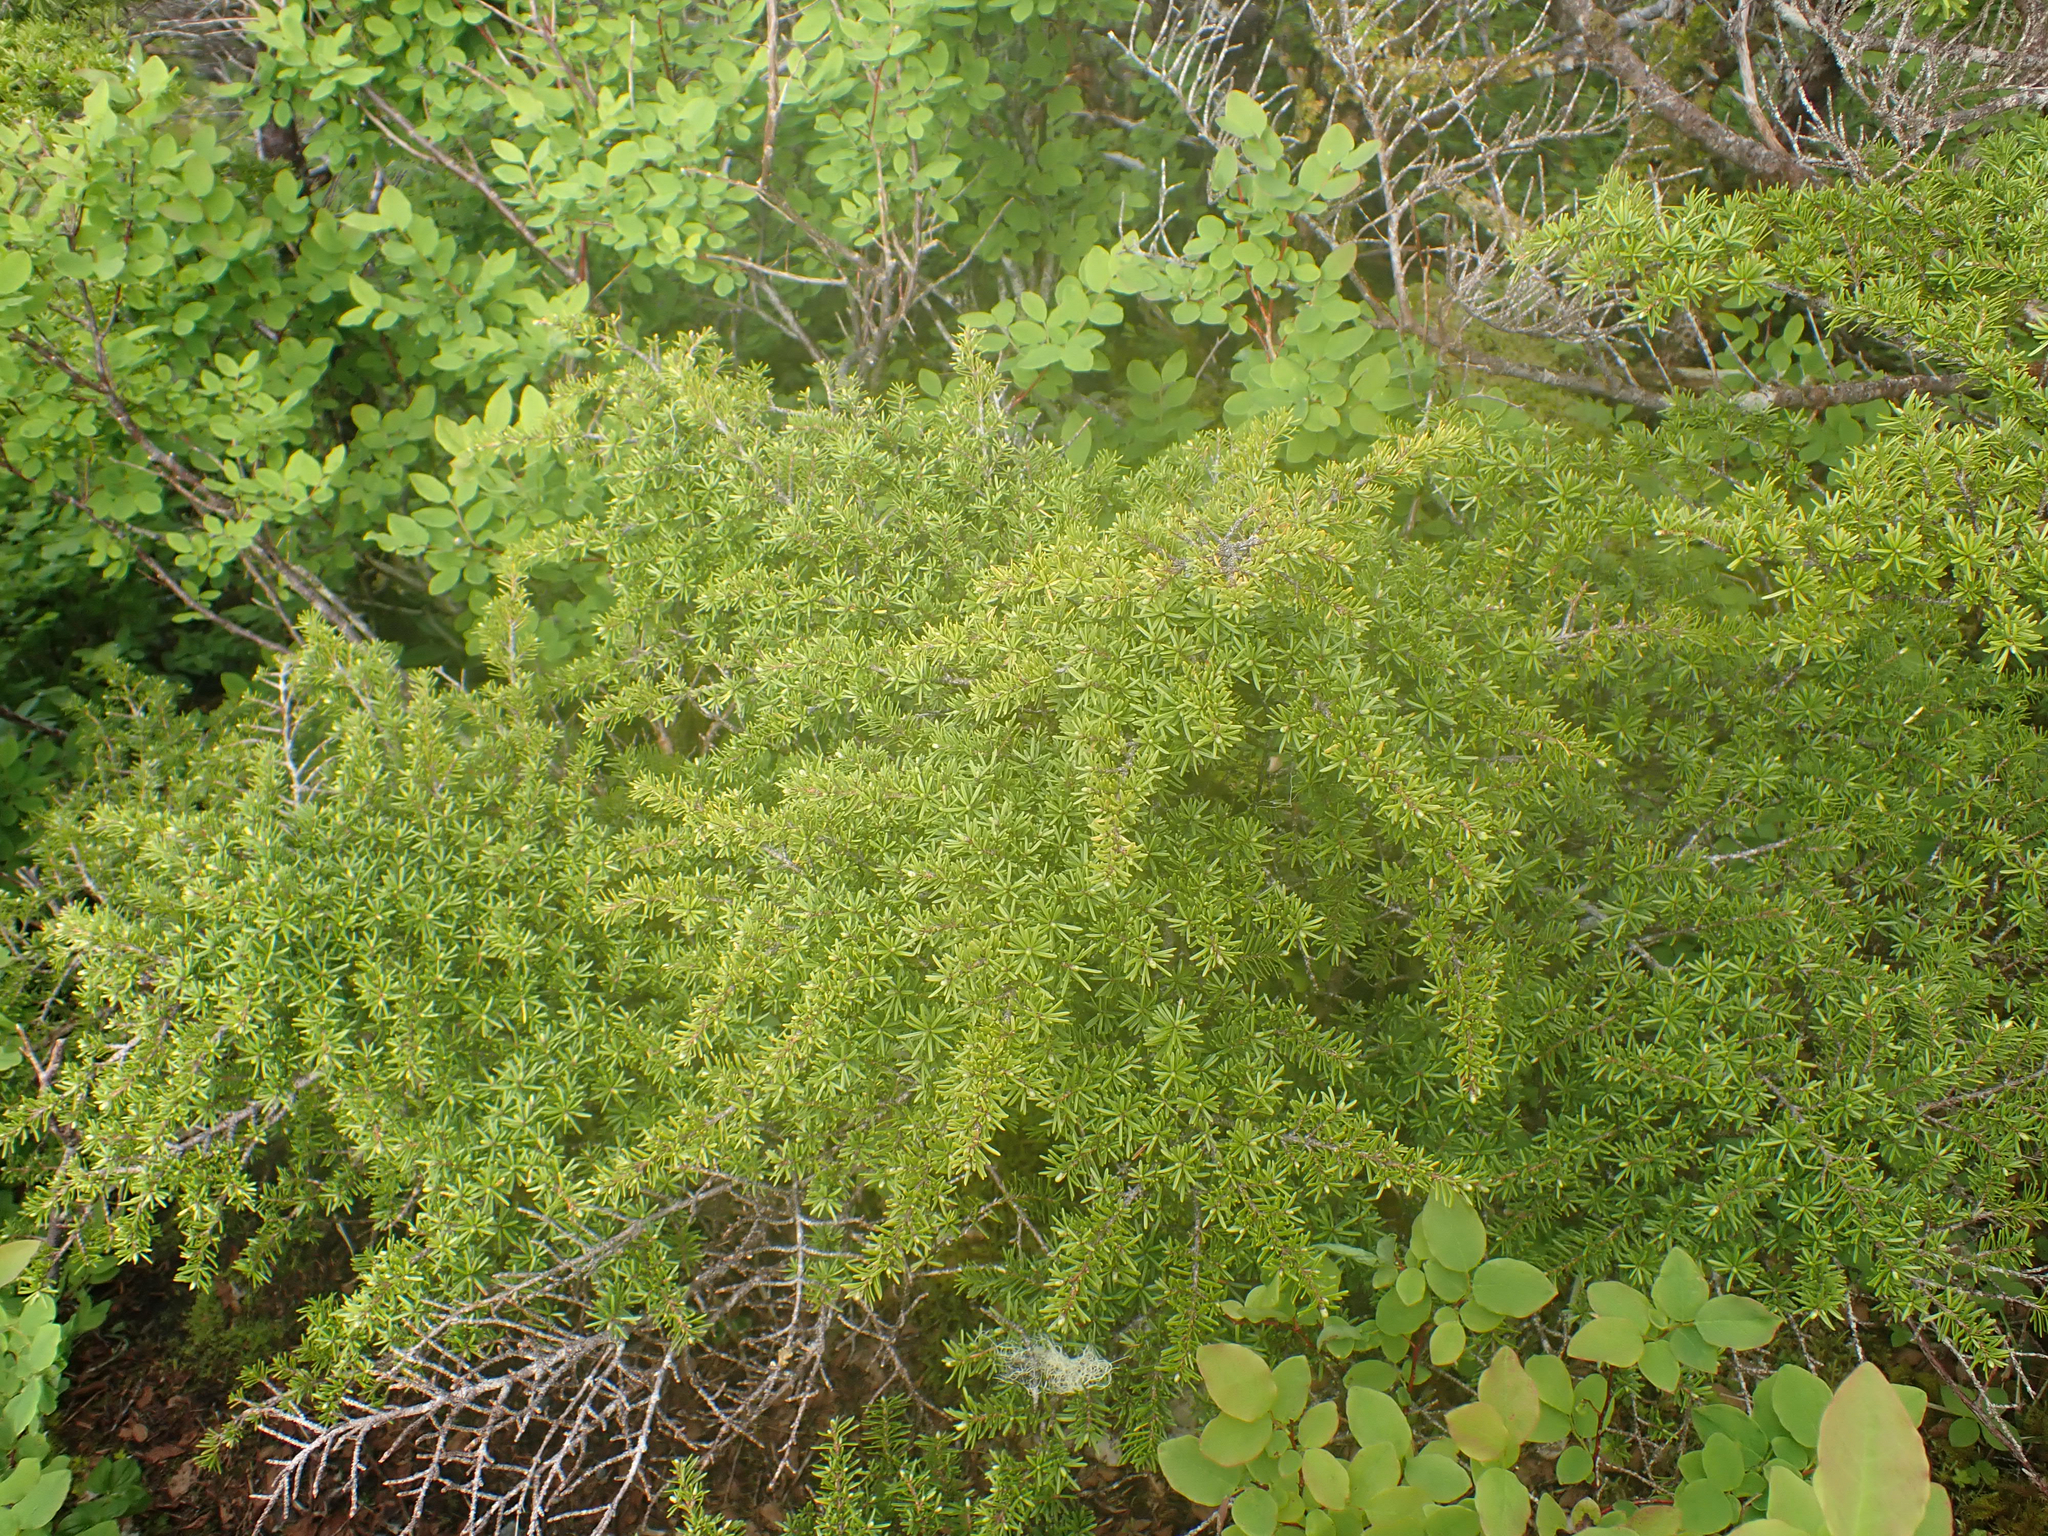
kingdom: Plantae
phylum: Tracheophyta
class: Pinopsida
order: Pinales
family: Pinaceae
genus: Tsuga
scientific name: Tsuga mertensiana
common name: Mountain hemlock
